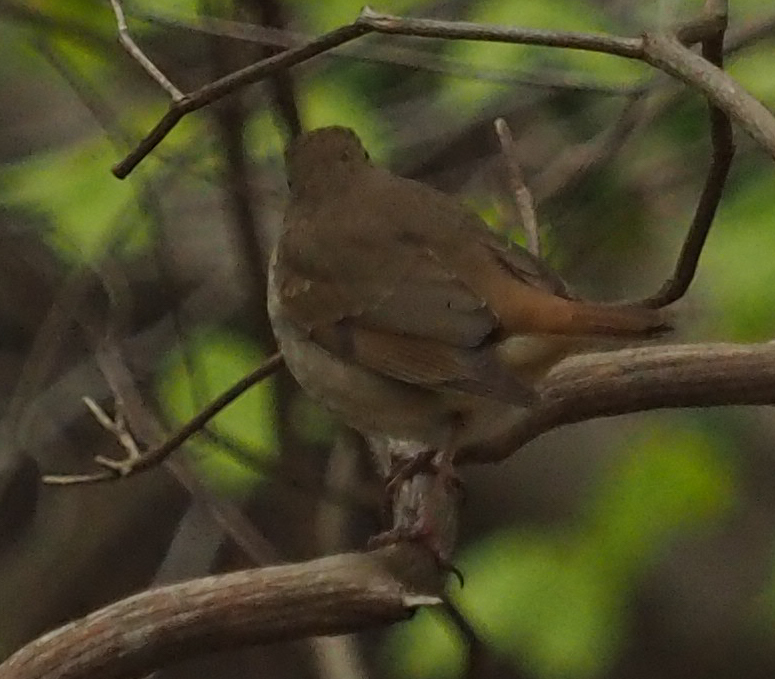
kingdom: Animalia
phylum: Chordata
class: Aves
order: Passeriformes
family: Turdidae
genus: Catharus
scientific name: Catharus guttatus
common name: Hermit thrush
